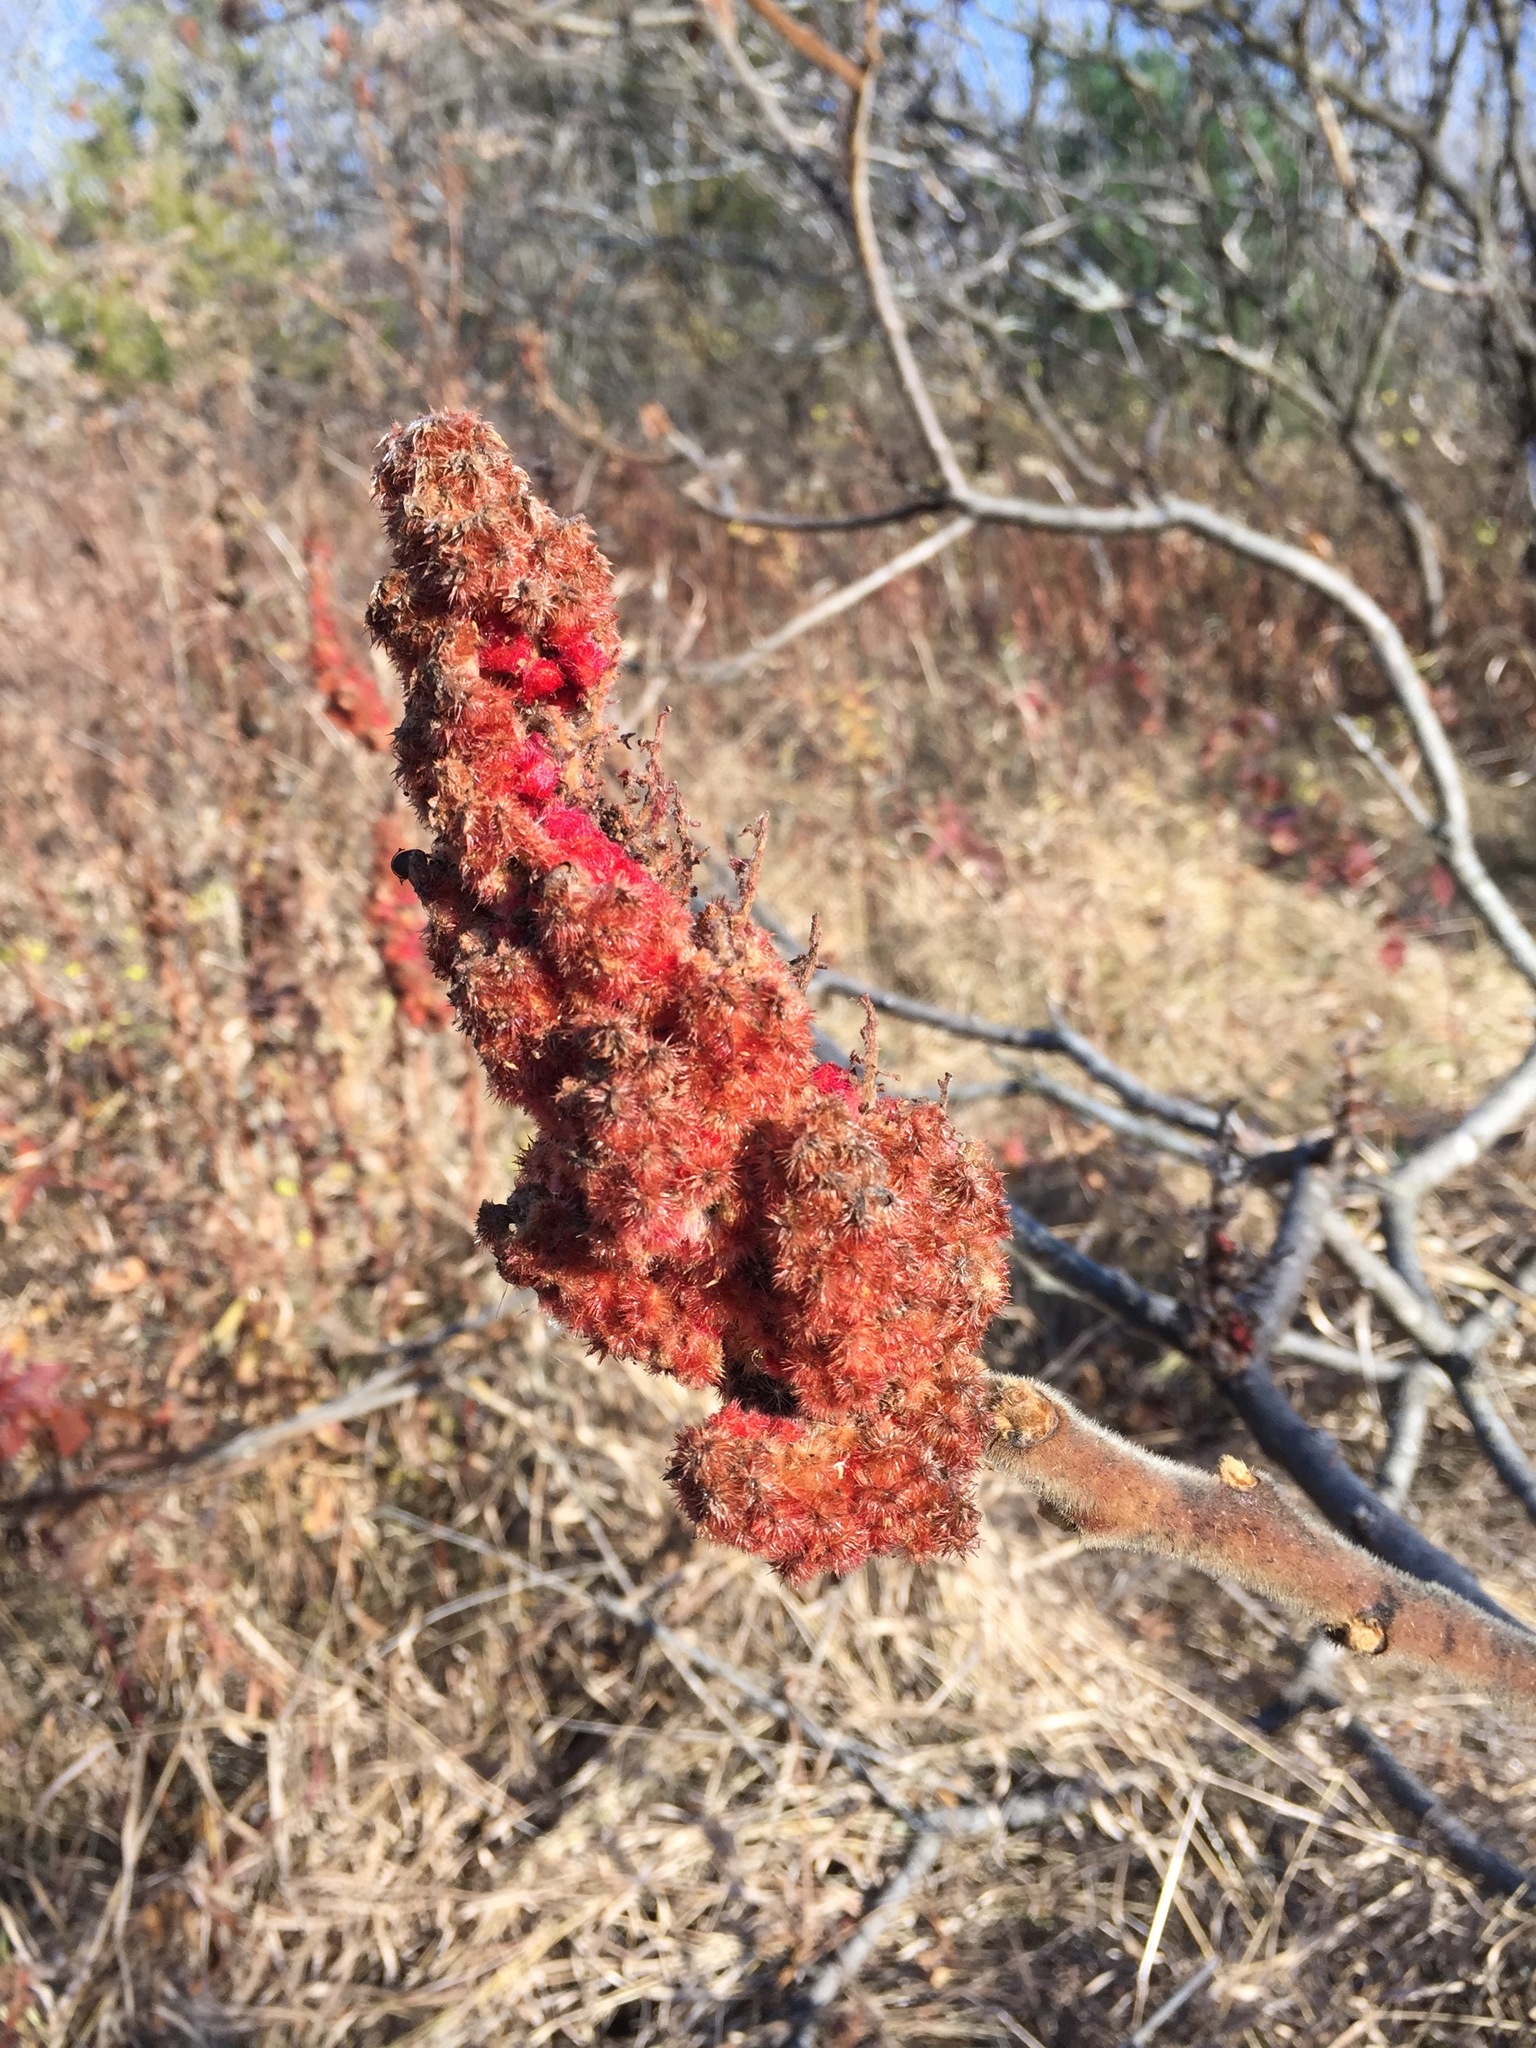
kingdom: Plantae
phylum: Tracheophyta
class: Magnoliopsida
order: Sapindales
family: Anacardiaceae
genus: Rhus
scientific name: Rhus typhina
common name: Staghorn sumac
